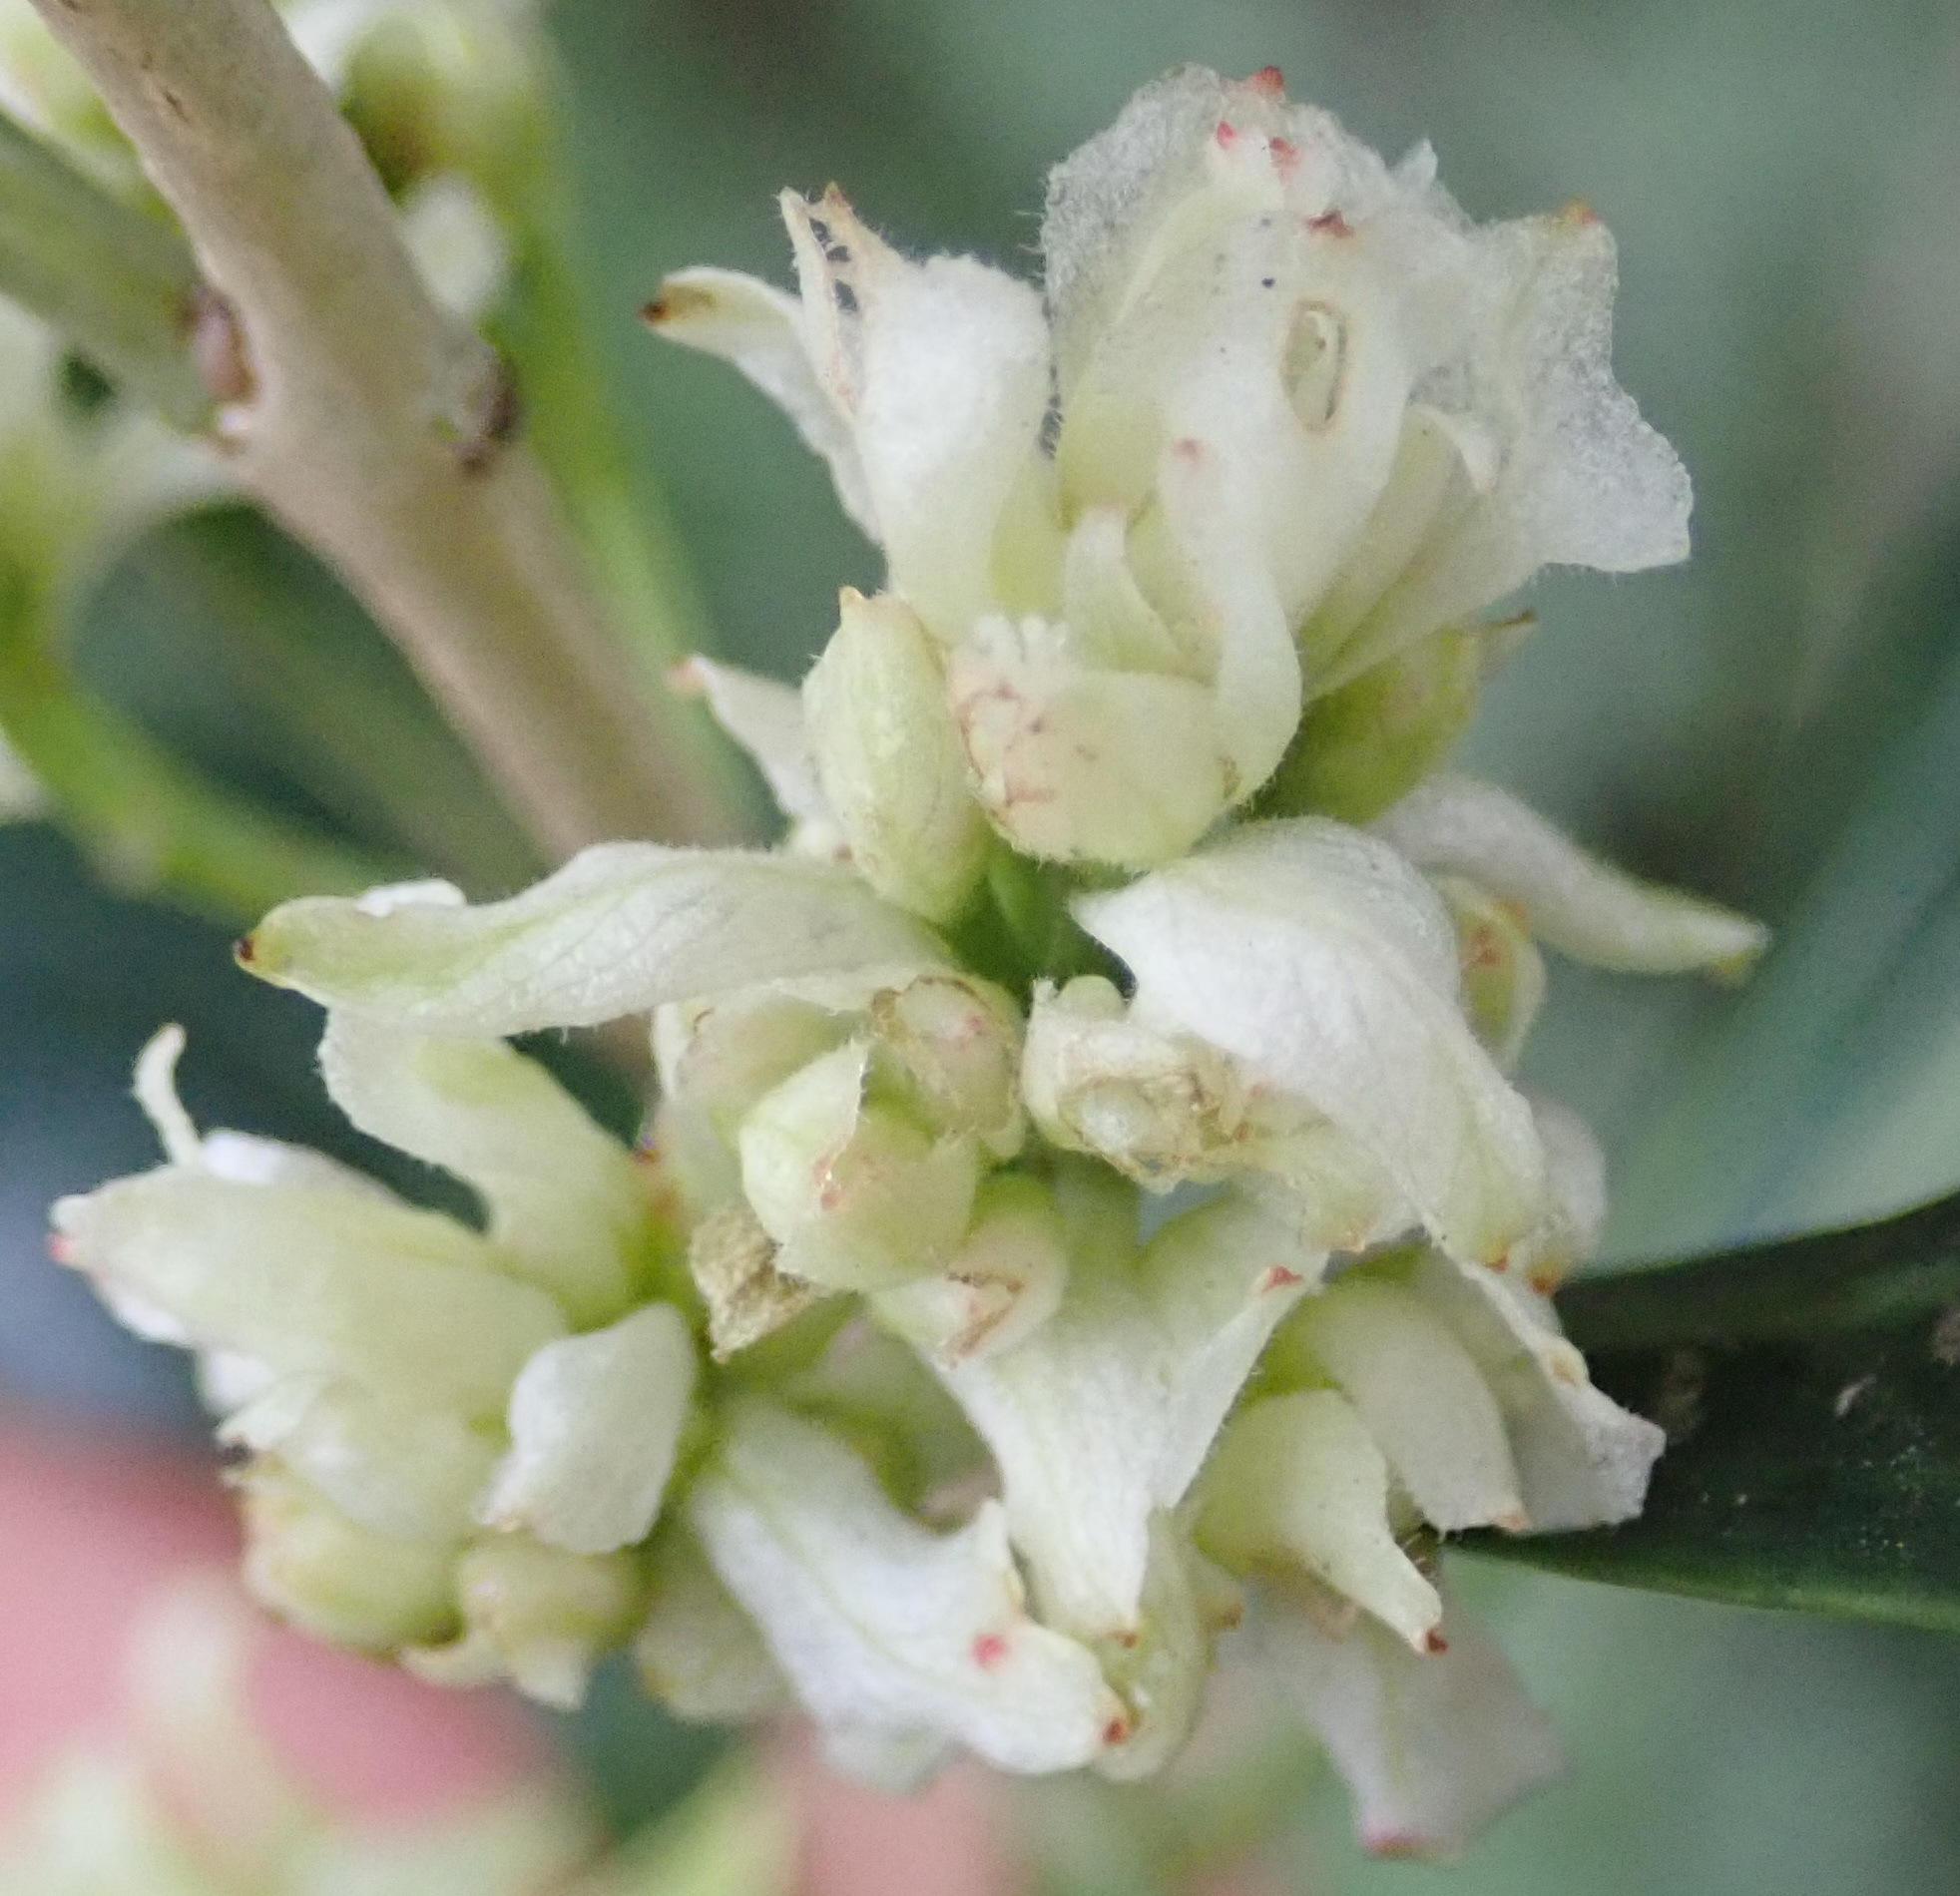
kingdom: Plantae
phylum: Tracheophyta
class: Magnoliopsida
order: Myrtales
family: Penaeaceae
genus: Olinia
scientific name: Olinia ventosa
